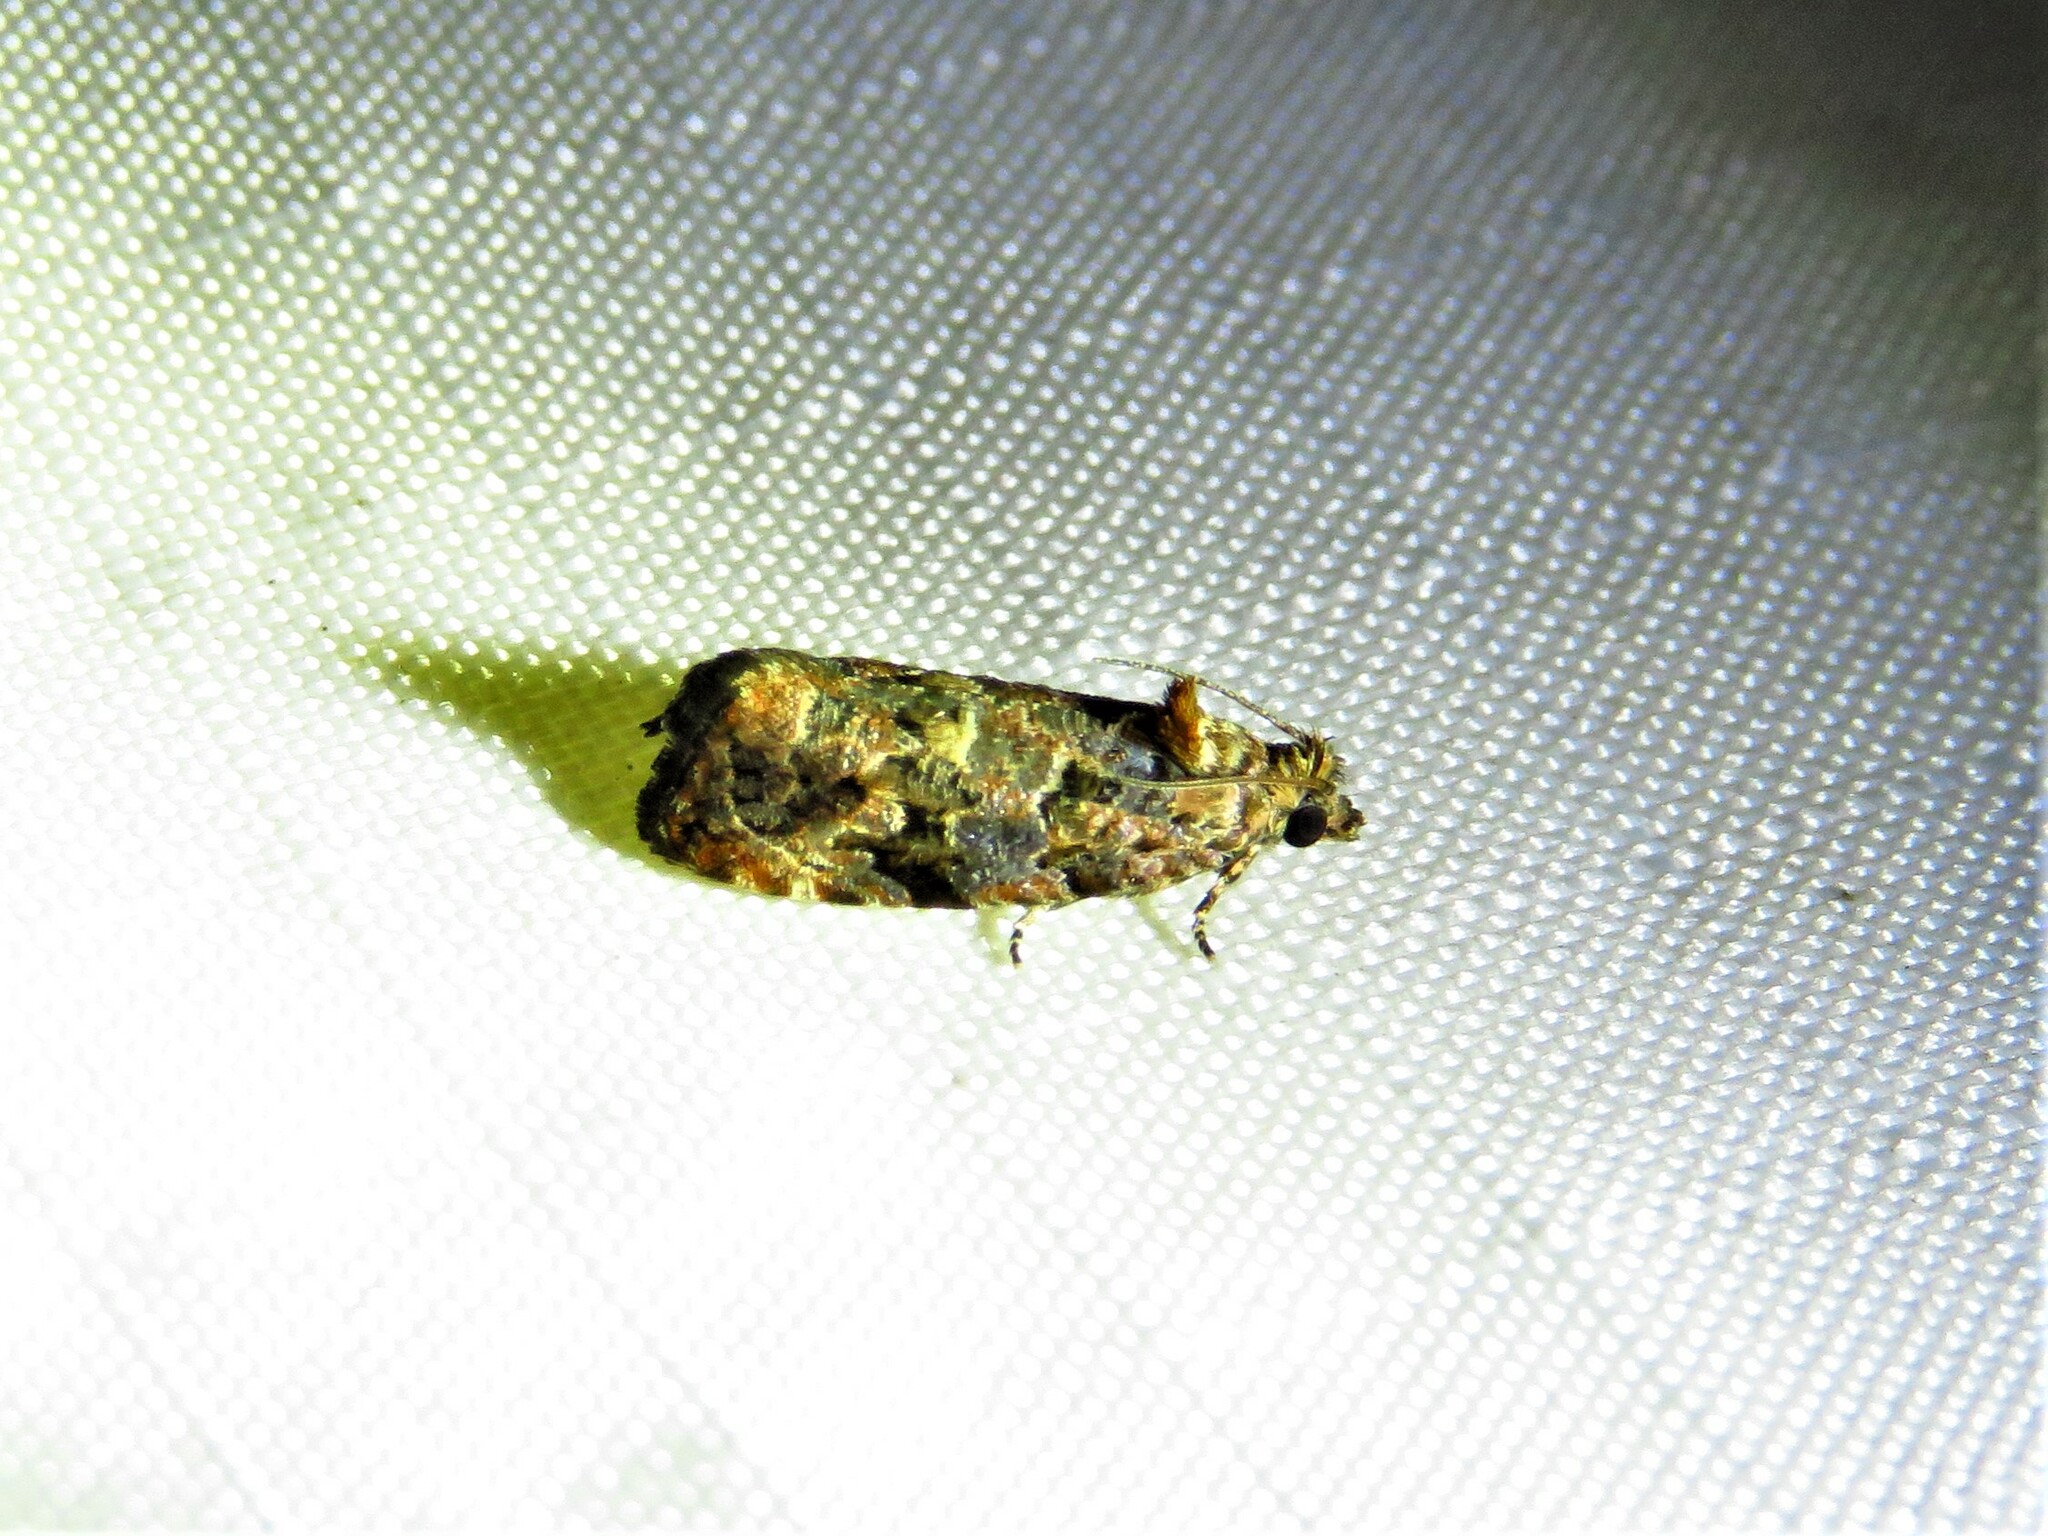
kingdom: Animalia
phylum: Arthropoda
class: Insecta
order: Lepidoptera
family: Tortricidae
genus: Endothenia
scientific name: Endothenia hebesana
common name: Verbena bud moth
